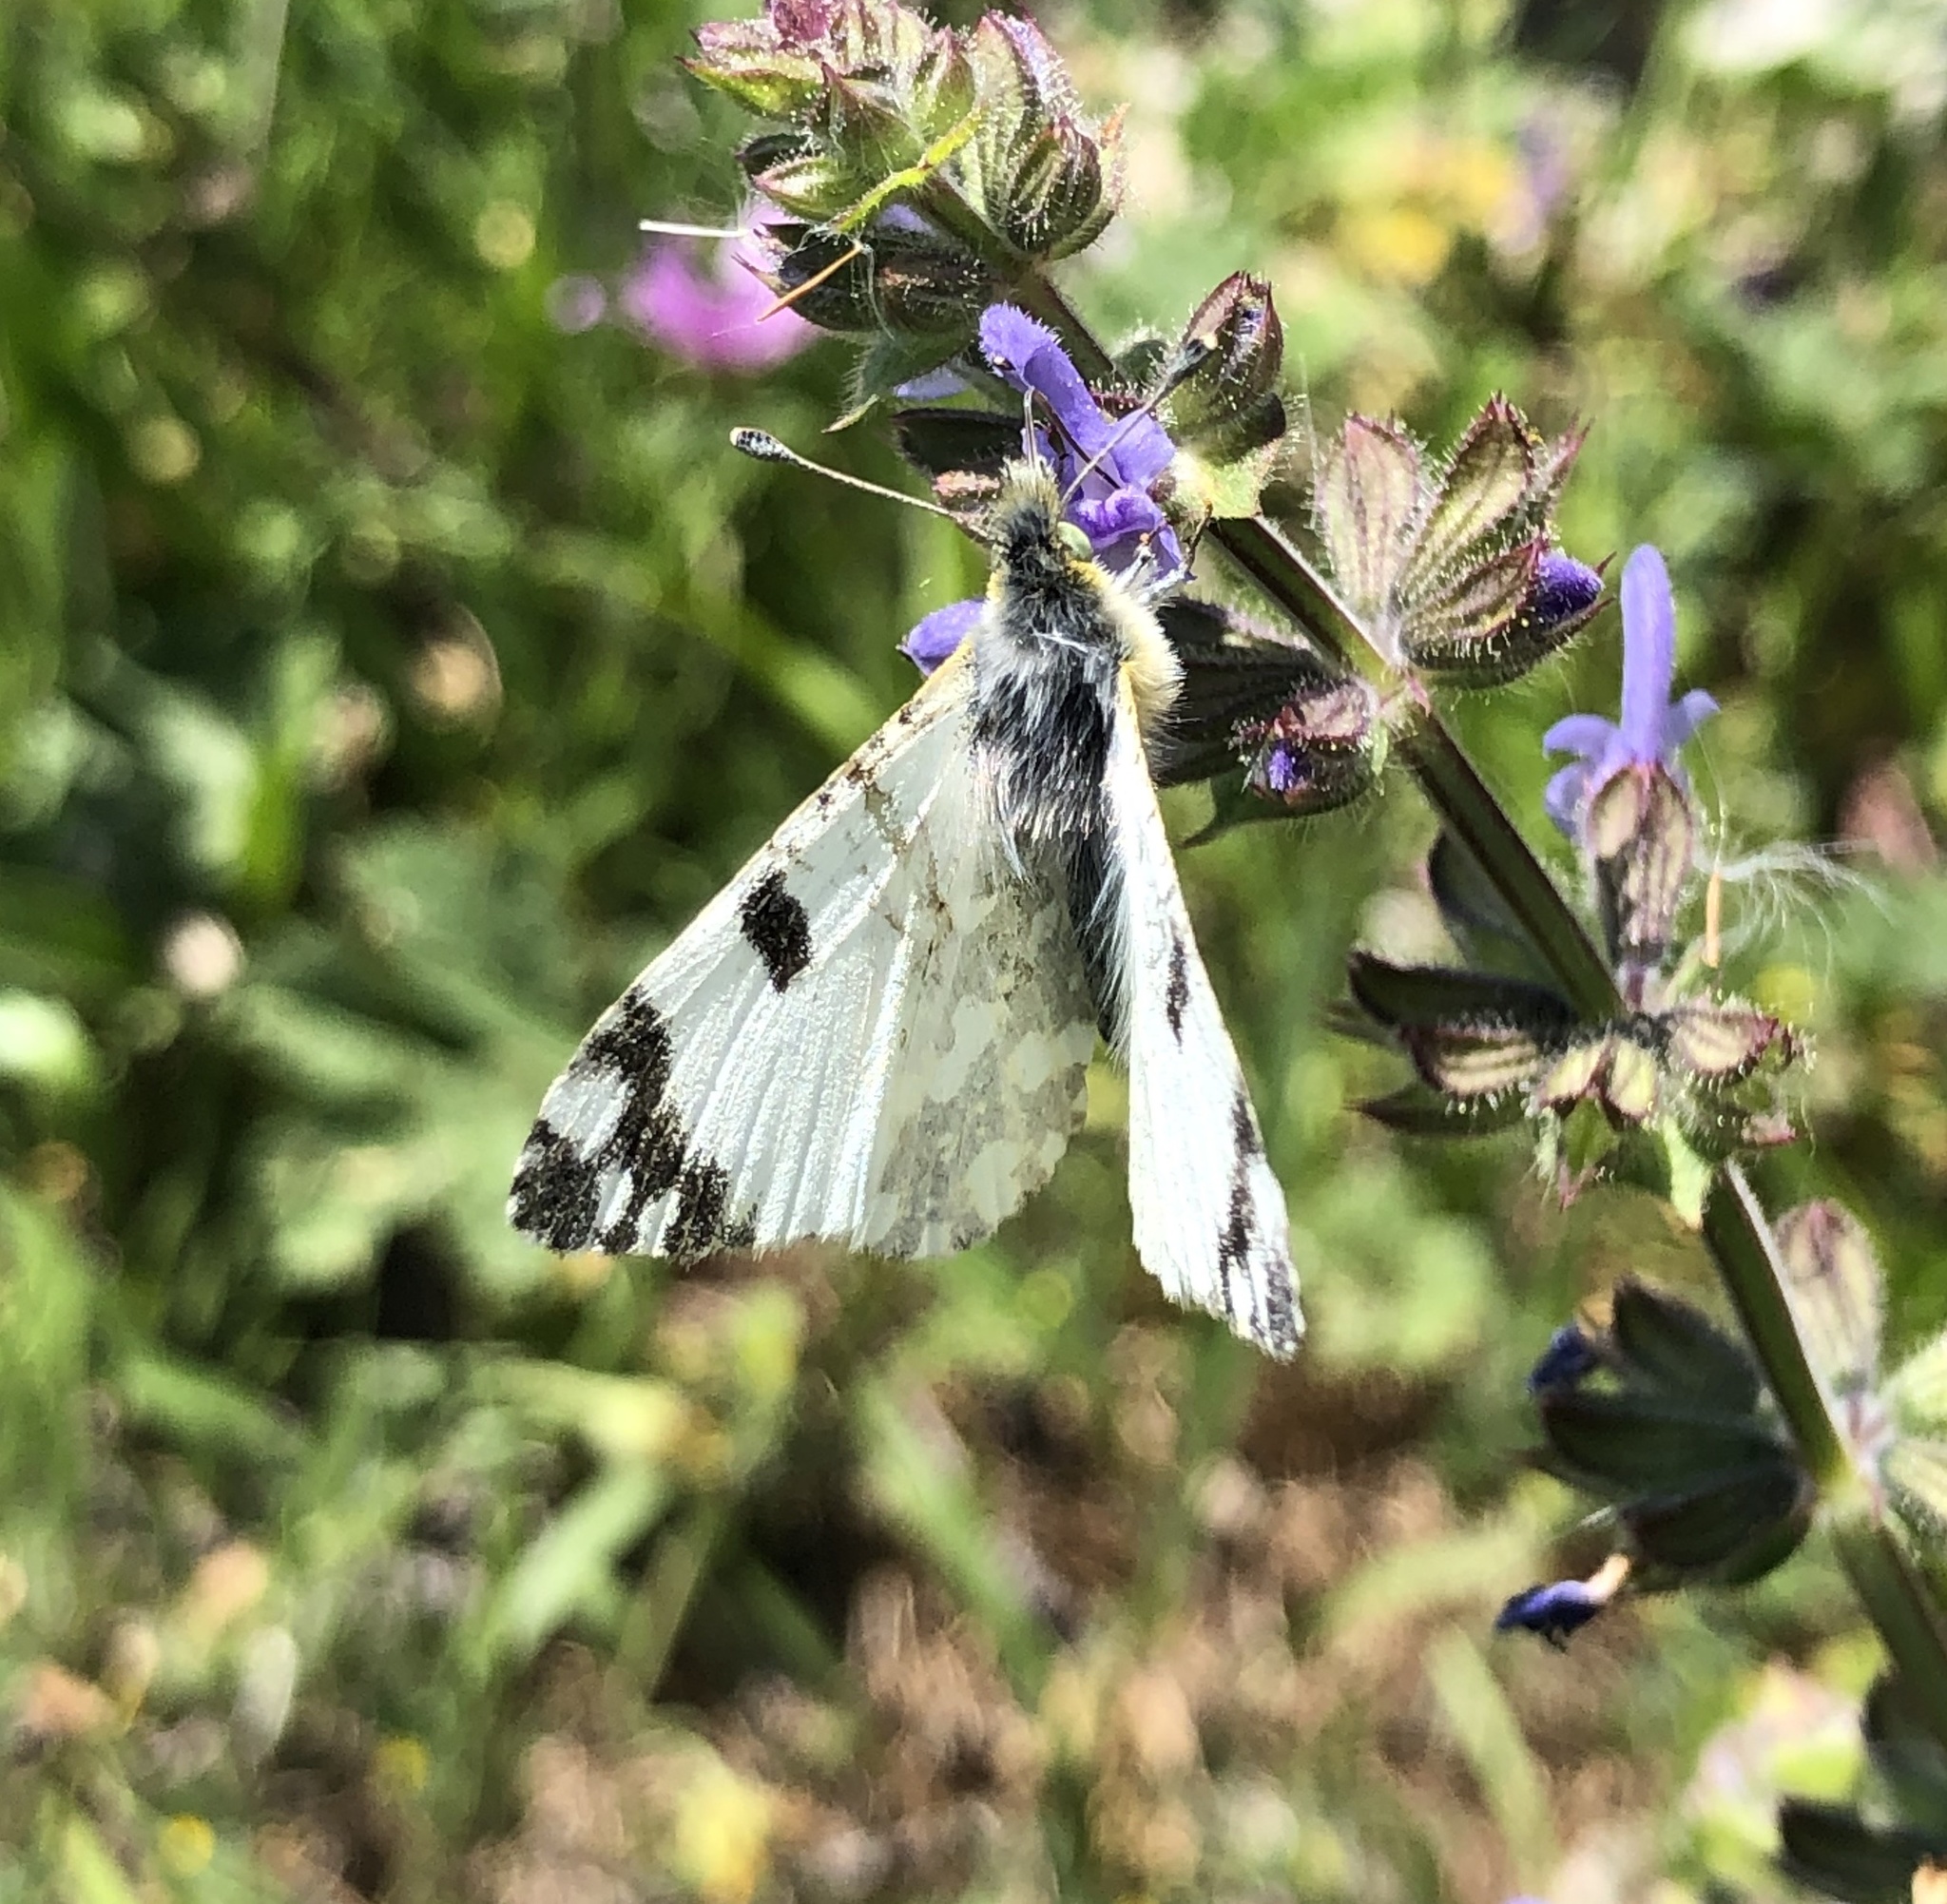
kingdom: Animalia
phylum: Arthropoda
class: Insecta
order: Lepidoptera
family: Pieridae
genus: Euchloe
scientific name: Euchloe crameri
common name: Western dappled white
